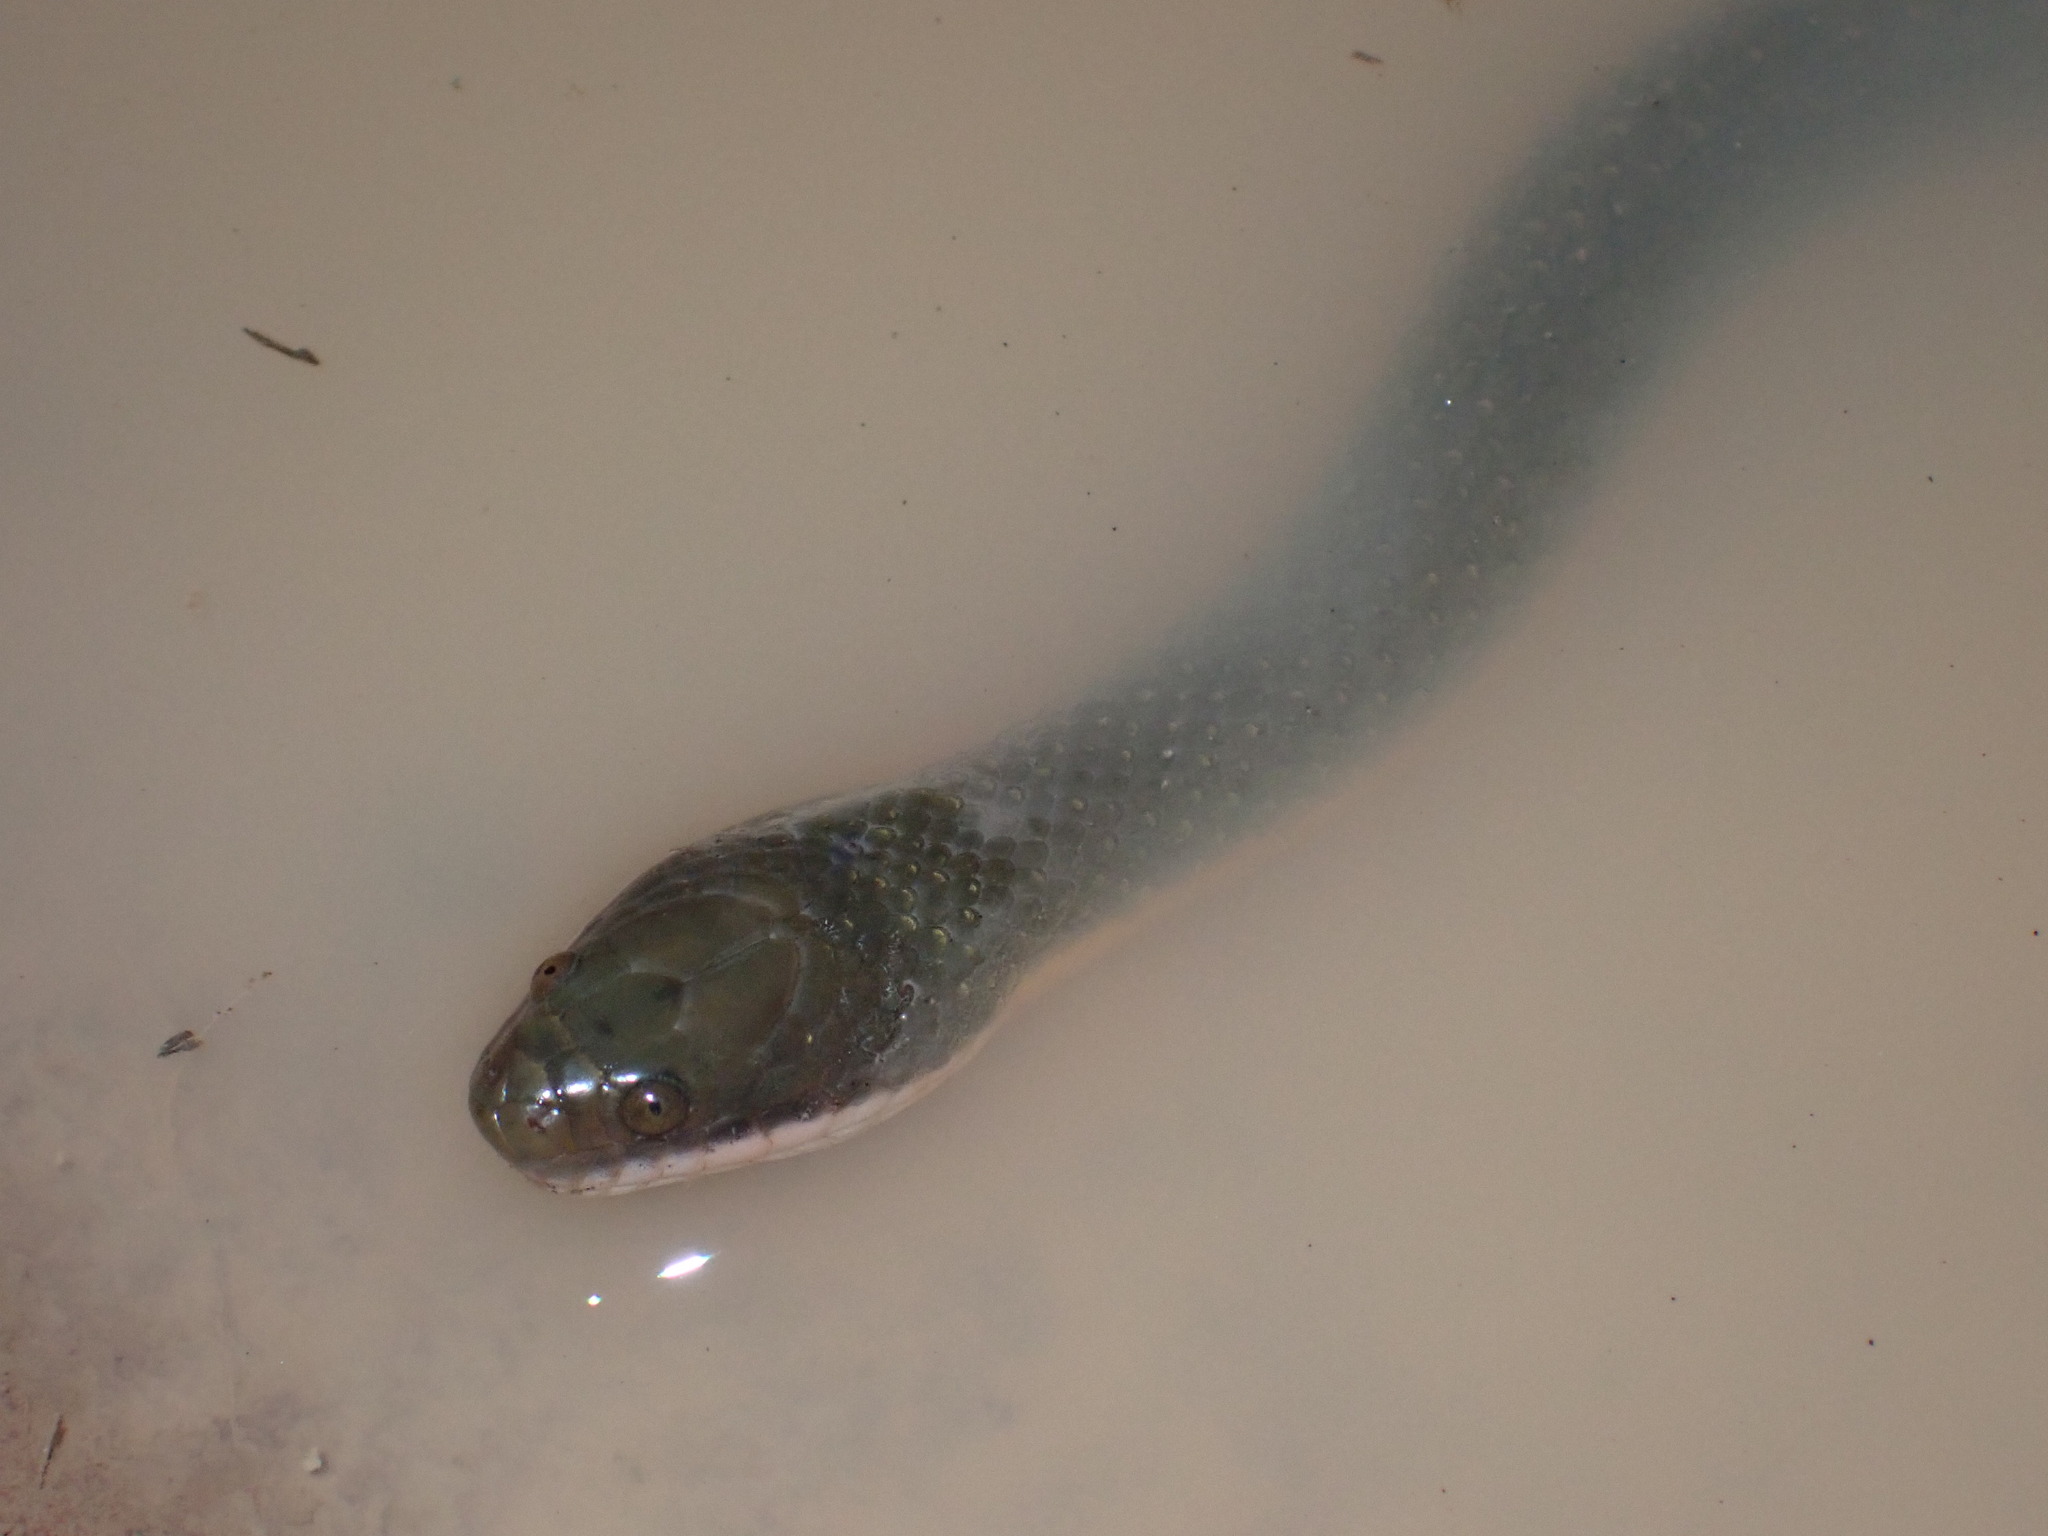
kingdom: Animalia
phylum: Chordata
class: Squamata
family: Homalopsidae
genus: Hypsiscopus
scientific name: Hypsiscopus
